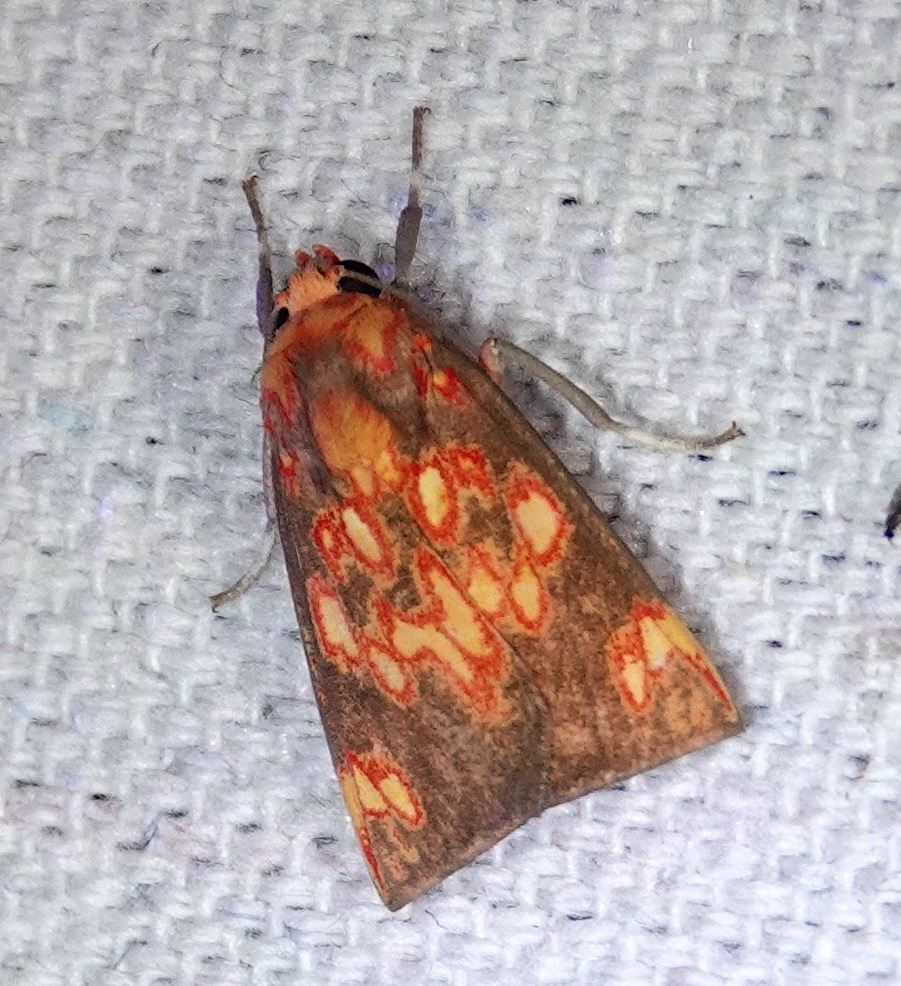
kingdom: Animalia
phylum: Arthropoda
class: Insecta
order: Lepidoptera
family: Erebidae
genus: Melese
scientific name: Melese flavimaculata
